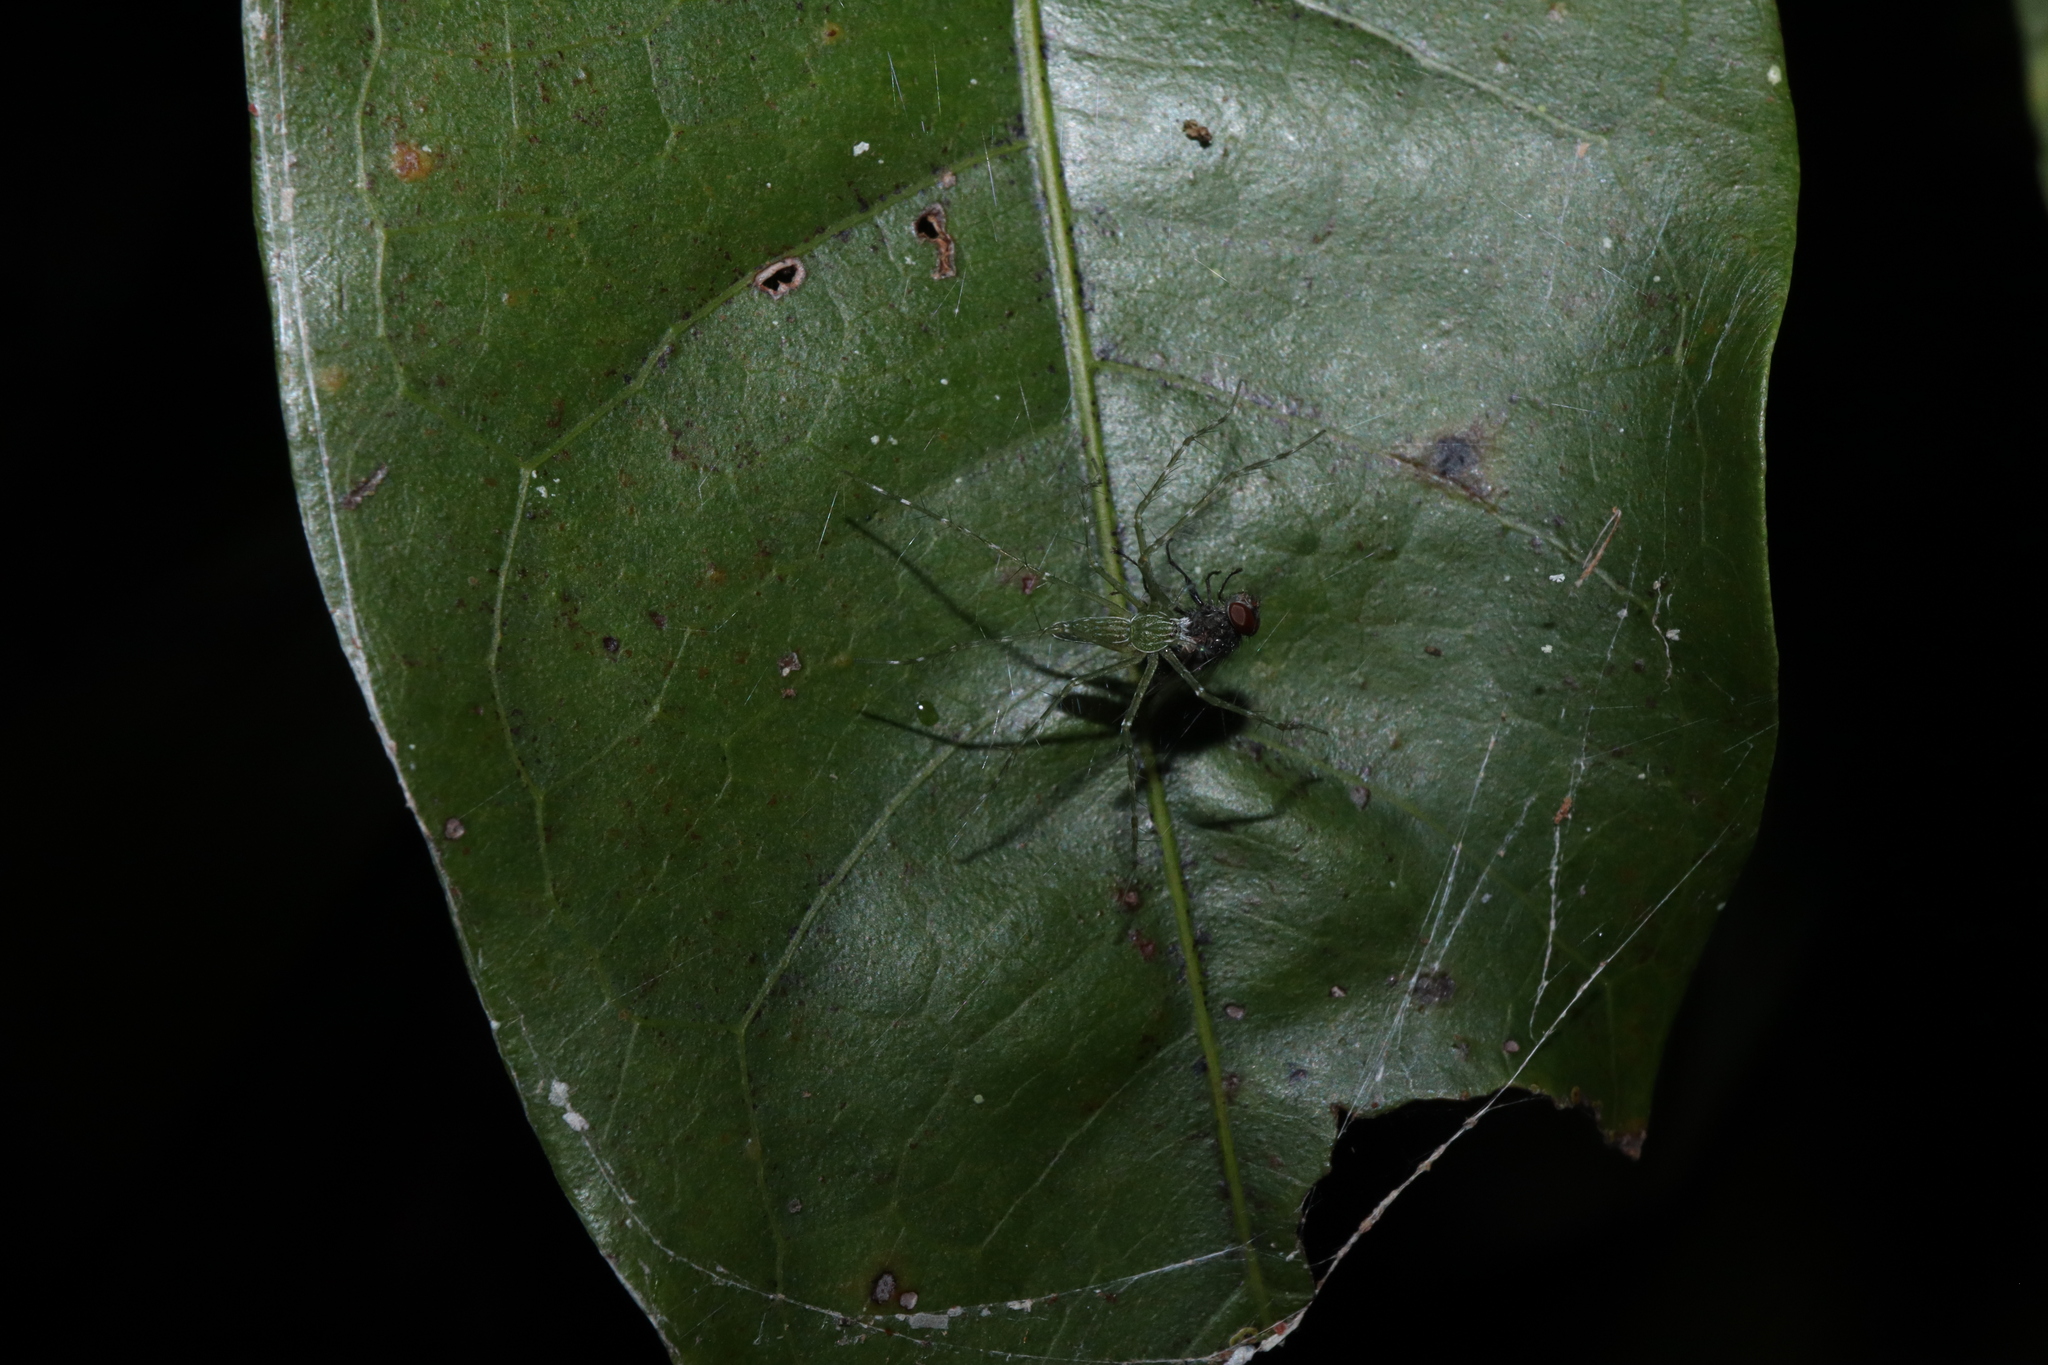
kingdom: Animalia
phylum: Arthropoda
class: Arachnida
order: Araneae
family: Pisauridae
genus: Hygropoda
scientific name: Hygropoda lineata
